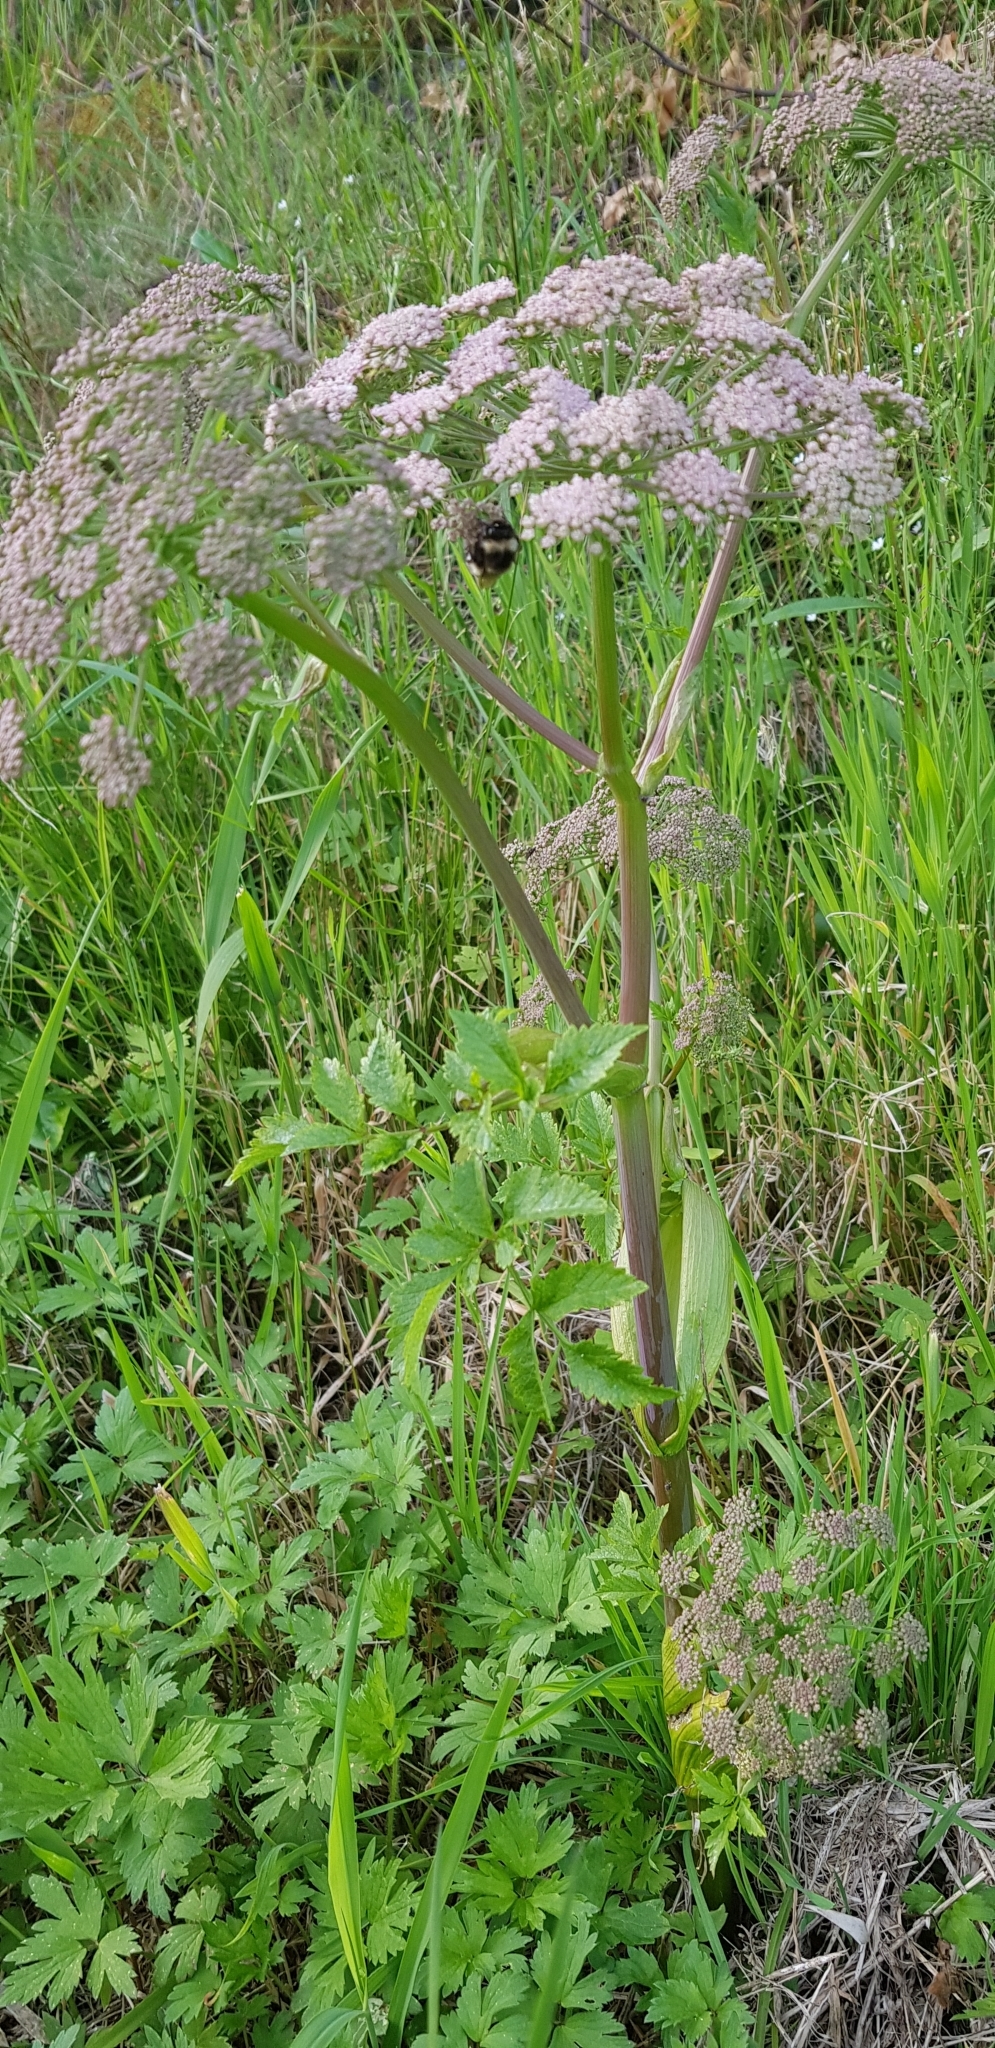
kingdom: Plantae
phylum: Tracheophyta
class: Magnoliopsida
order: Apiales
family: Apiaceae
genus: Angelica
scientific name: Angelica sylvestris
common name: Wild angelica
